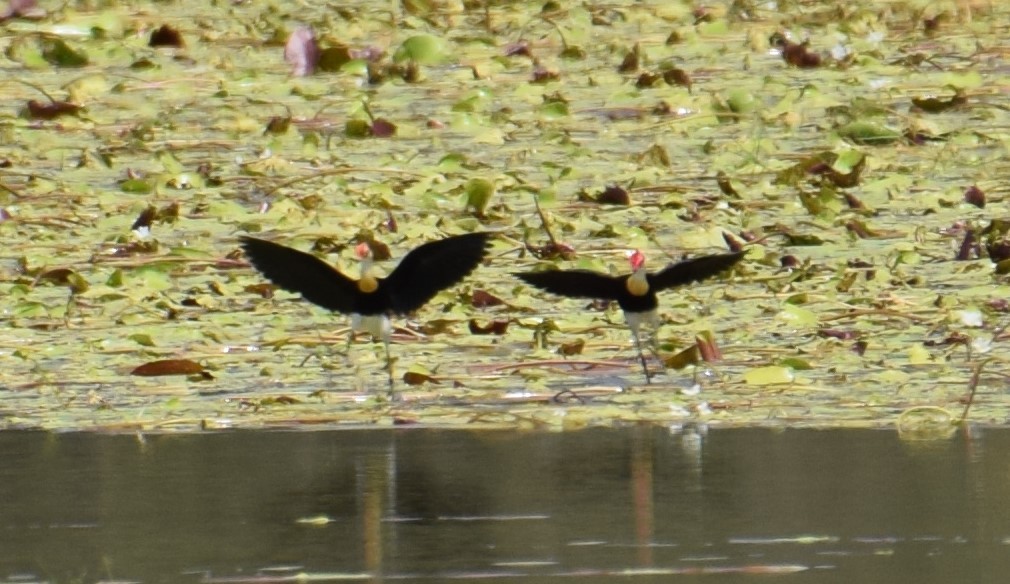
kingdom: Animalia
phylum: Chordata
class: Aves
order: Charadriiformes
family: Jacanidae
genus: Irediparra
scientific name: Irediparra gallinacea
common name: Comb-crested jacana
